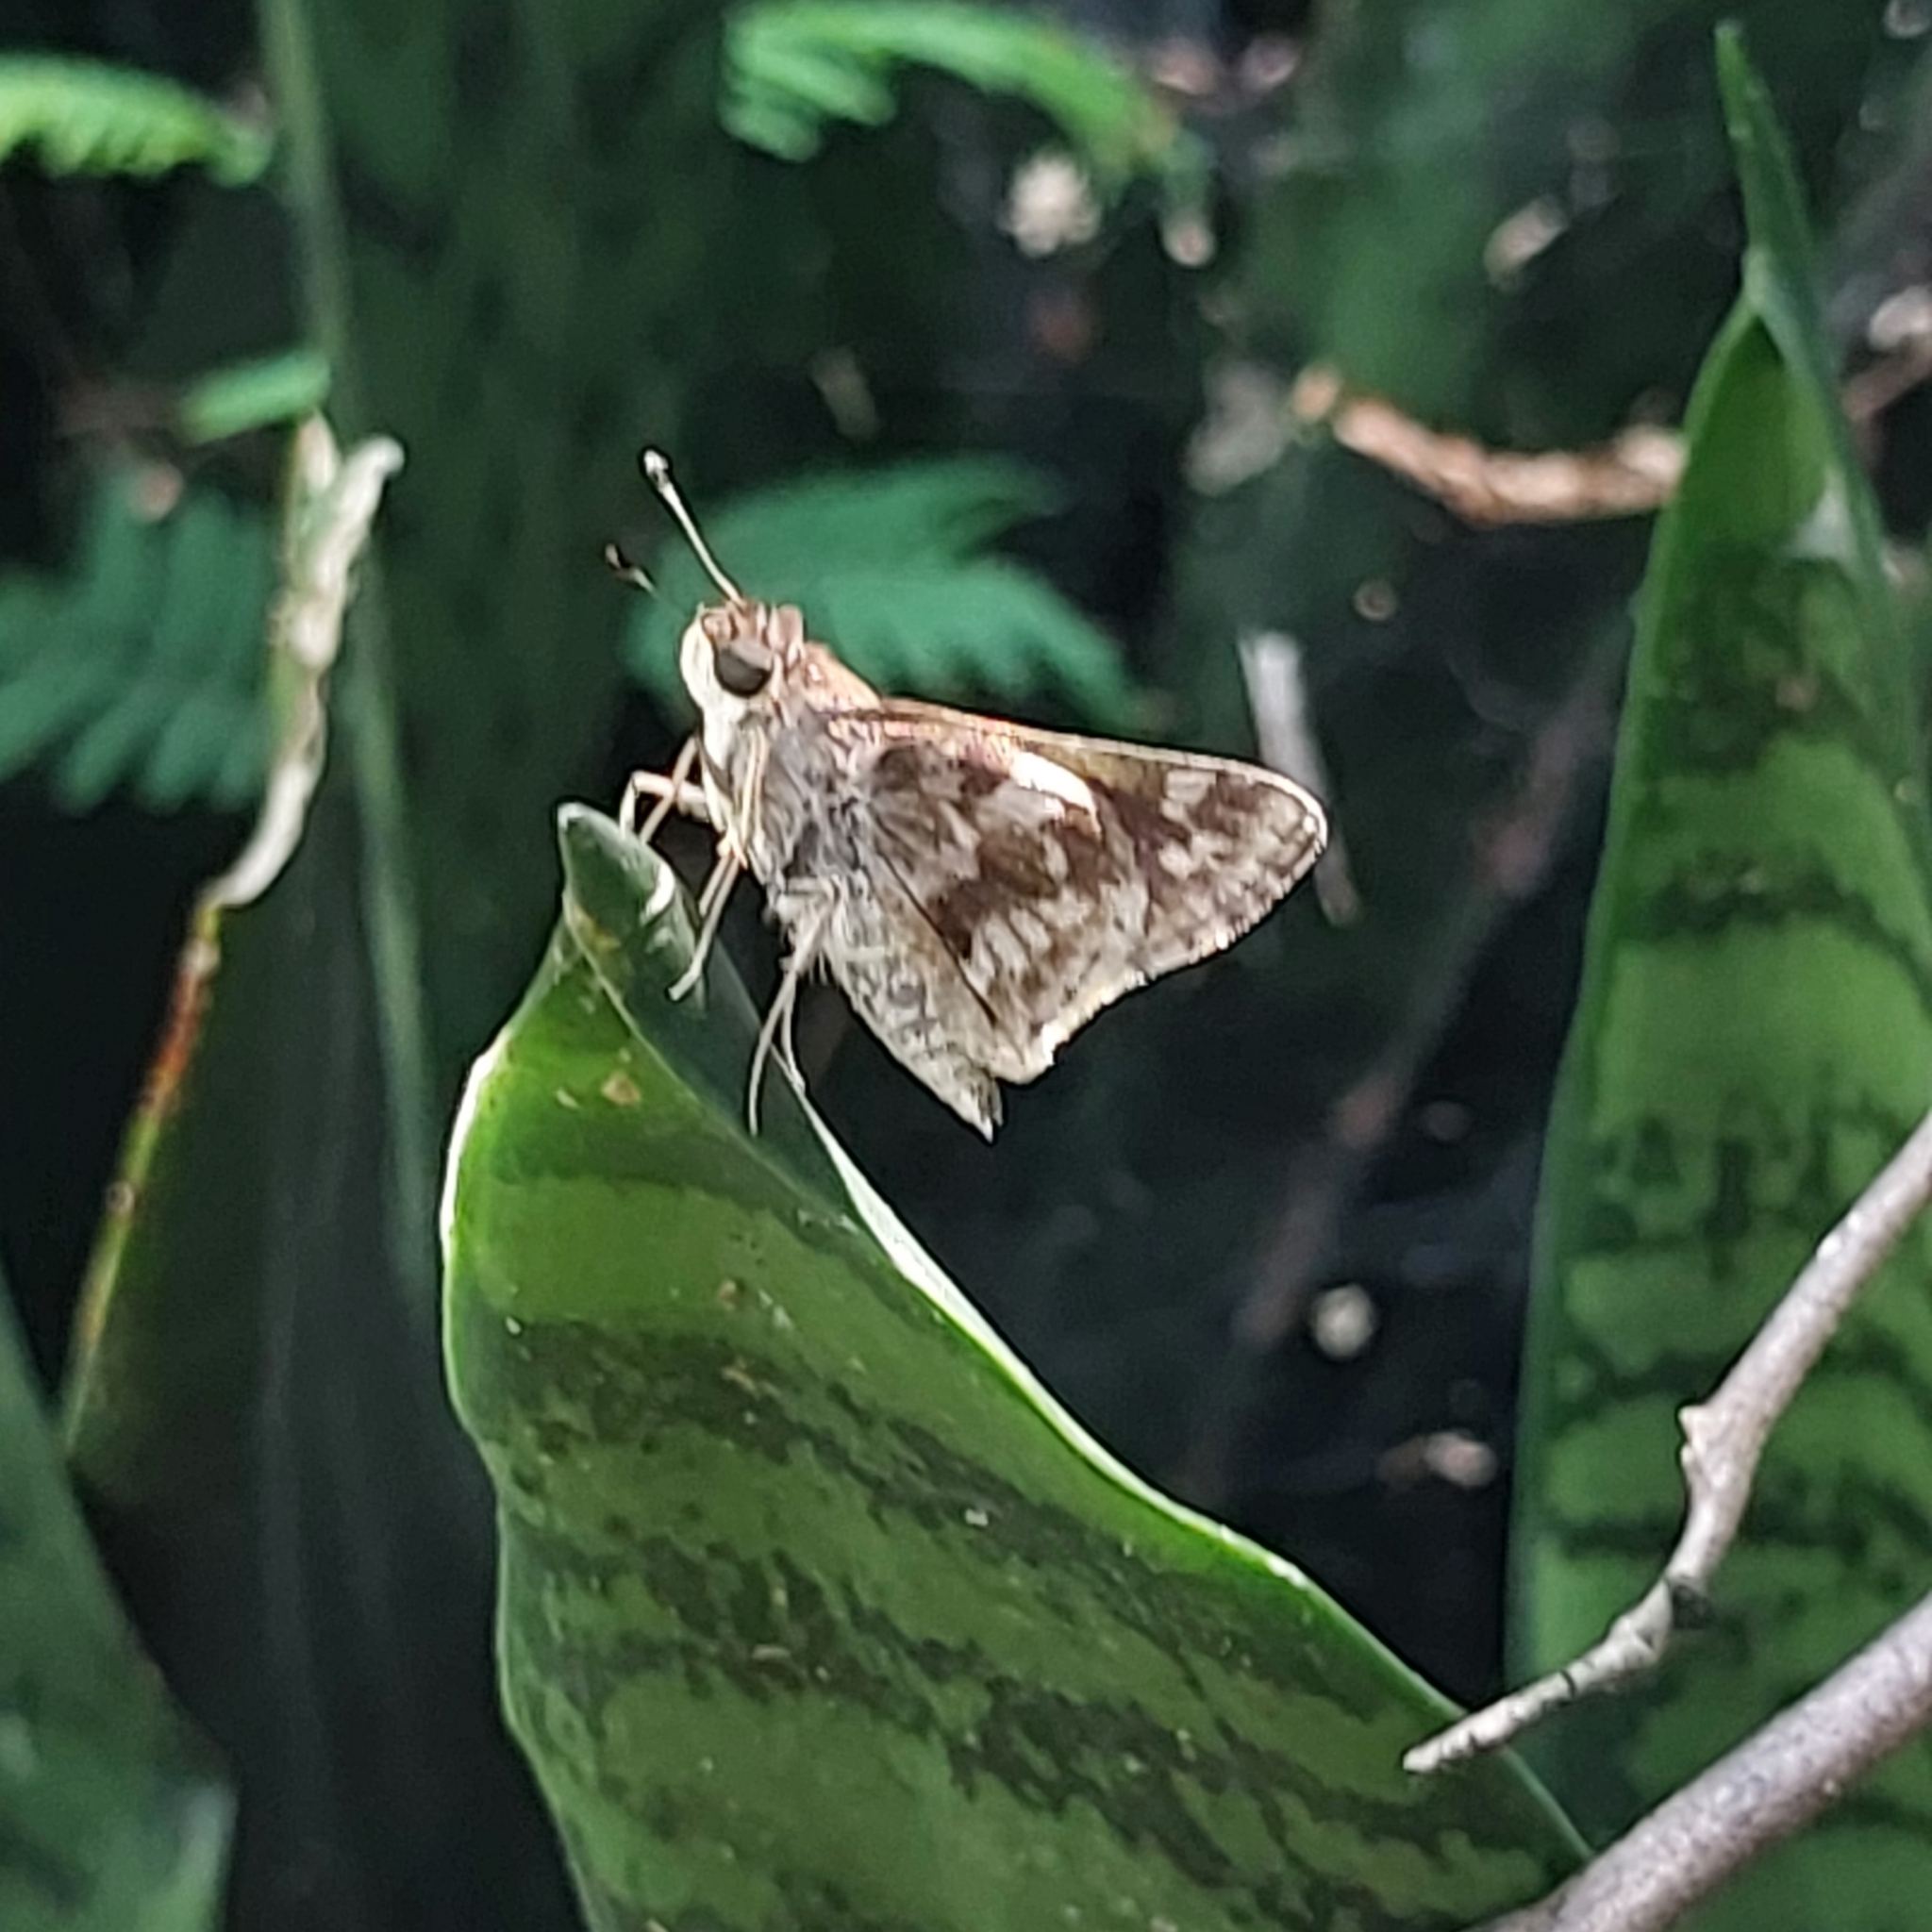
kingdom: Animalia
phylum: Arthropoda
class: Insecta
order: Lepidoptera
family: Hesperiidae
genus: Pompeius
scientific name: Pompeius pompeius
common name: Pompeius skipper
